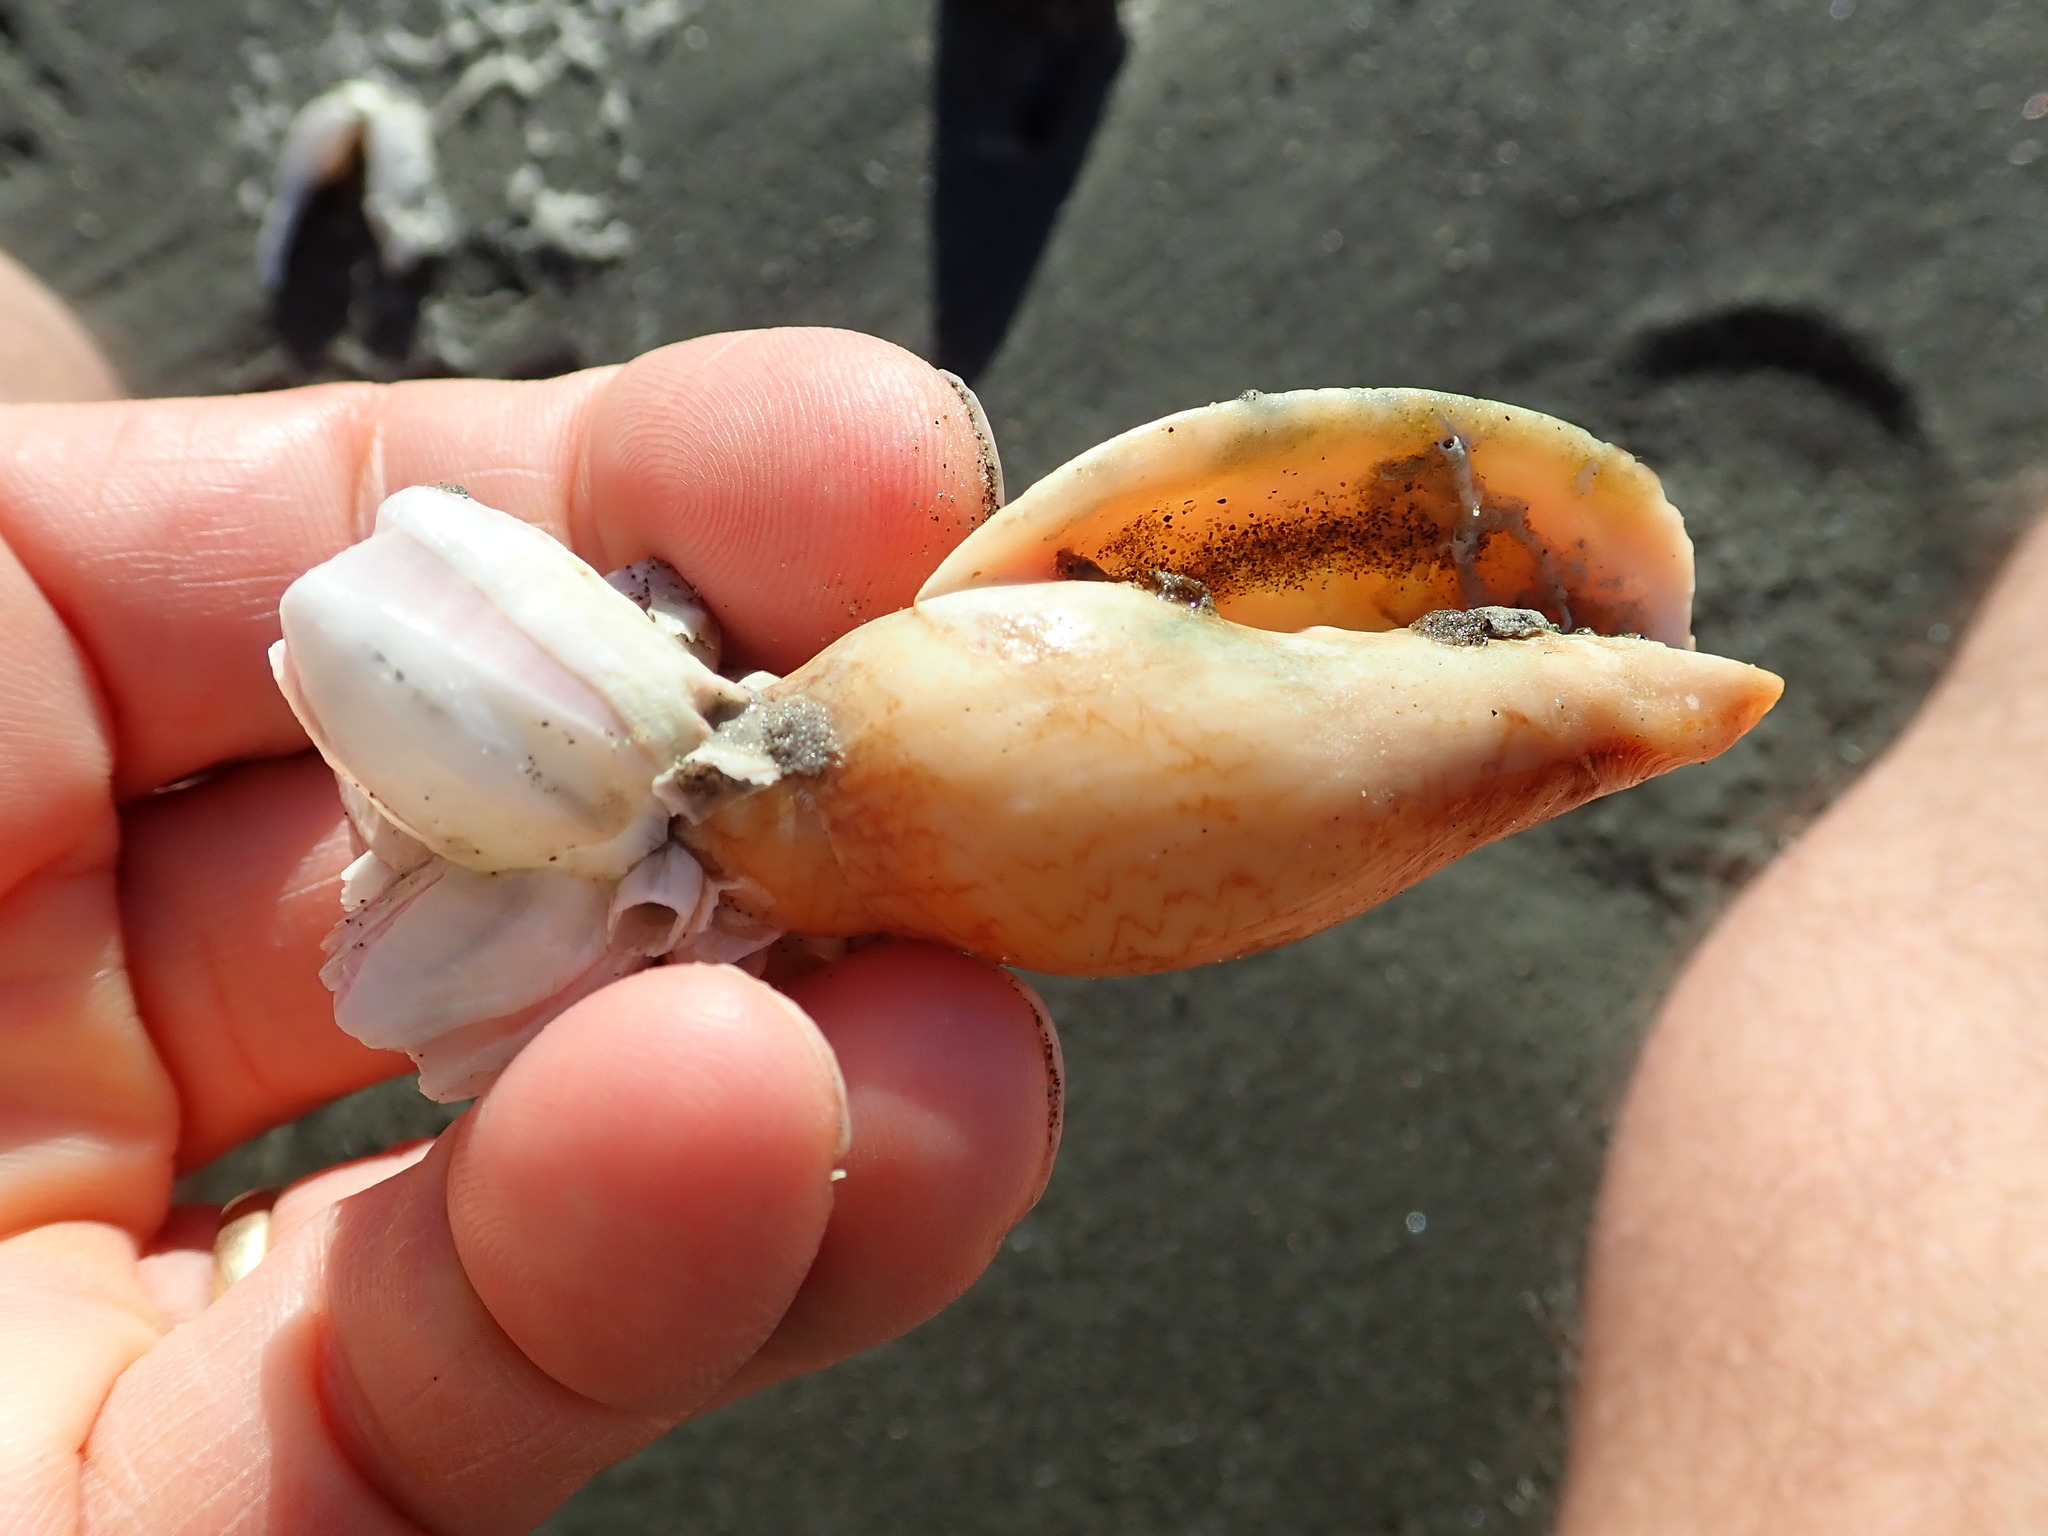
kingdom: Animalia
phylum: Mollusca
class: Gastropoda
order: Neogastropoda
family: Volutidae
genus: Alcithoe
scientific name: Alcithoe fusus
